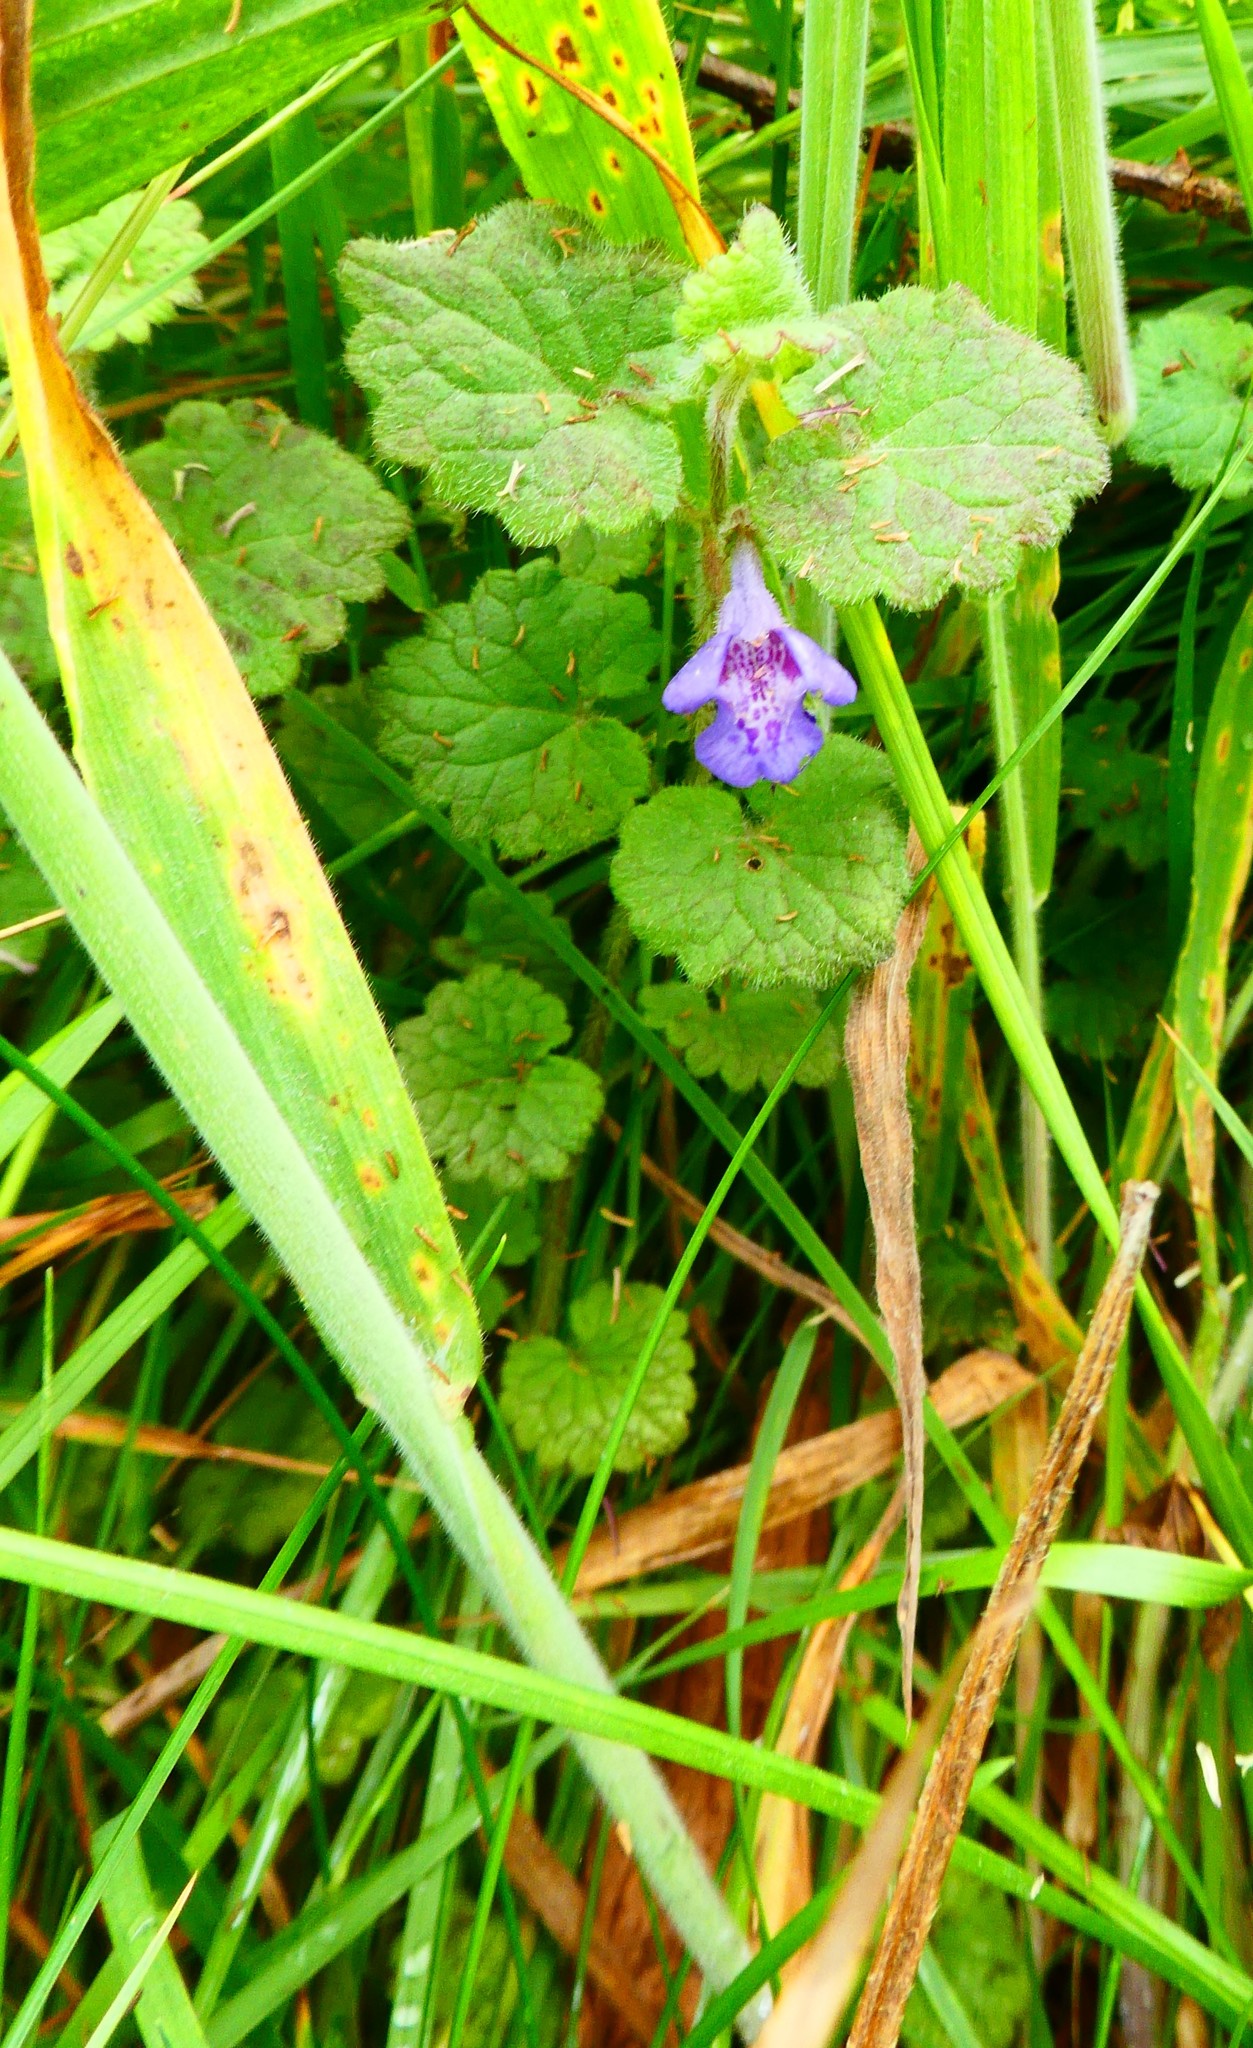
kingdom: Plantae
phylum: Tracheophyta
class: Magnoliopsida
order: Lamiales
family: Lamiaceae
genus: Glechoma
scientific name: Glechoma hederacea
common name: Ground ivy
